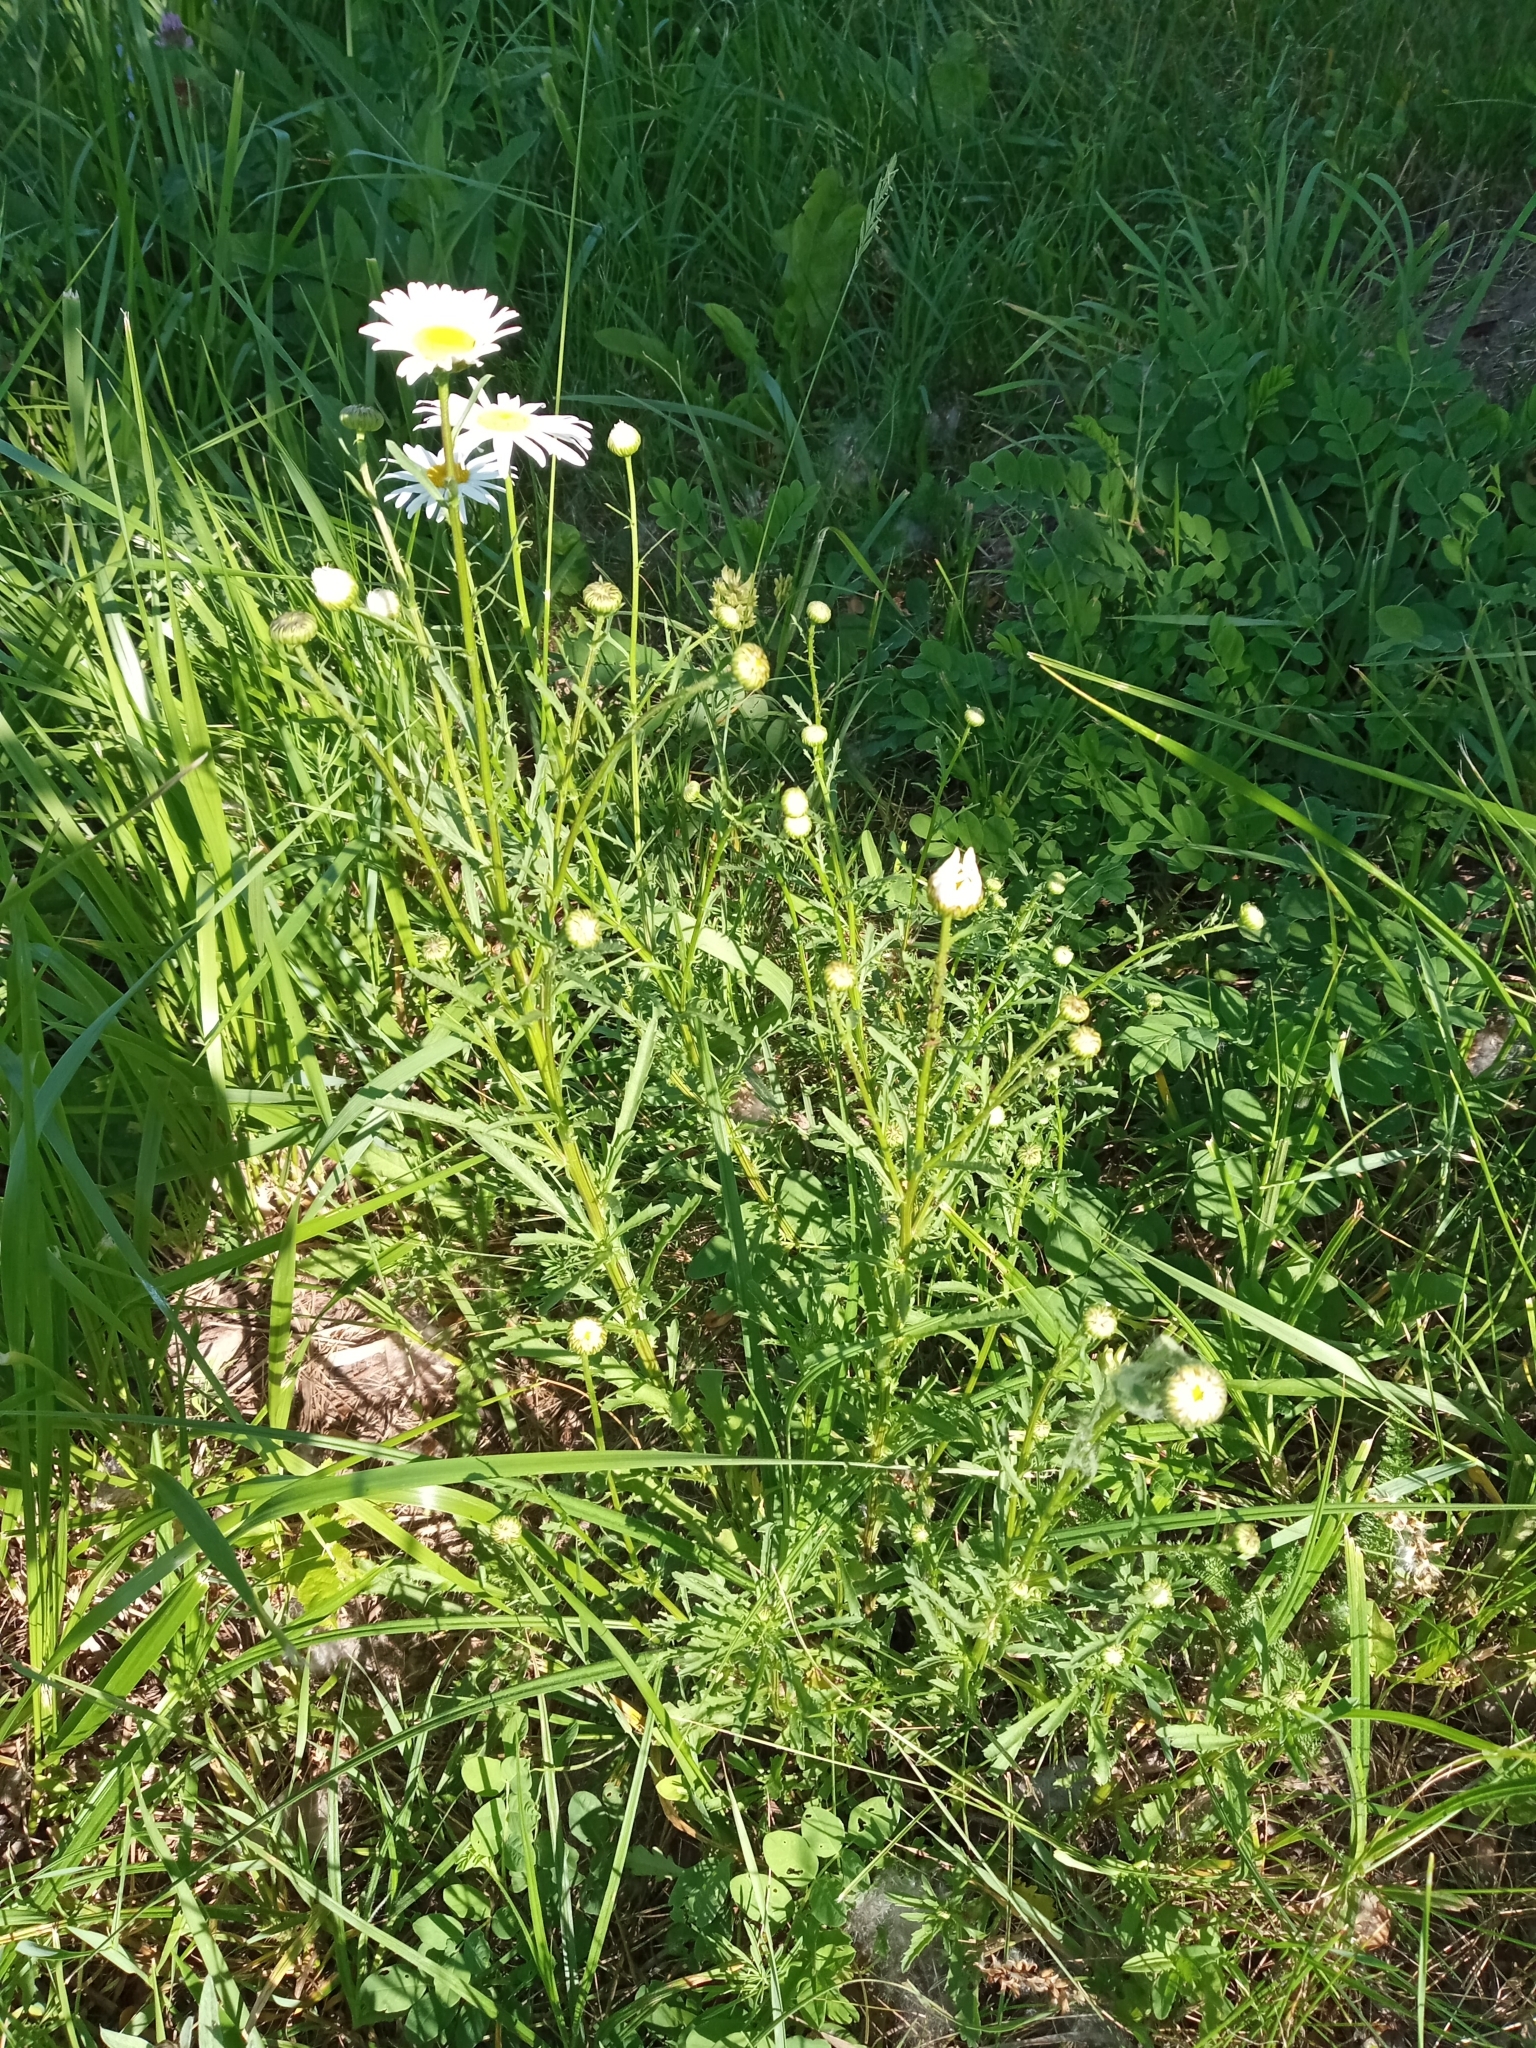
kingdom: Plantae
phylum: Tracheophyta
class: Magnoliopsida
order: Asterales
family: Asteraceae
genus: Leucanthemum
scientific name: Leucanthemum vulgare
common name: Oxeye daisy
